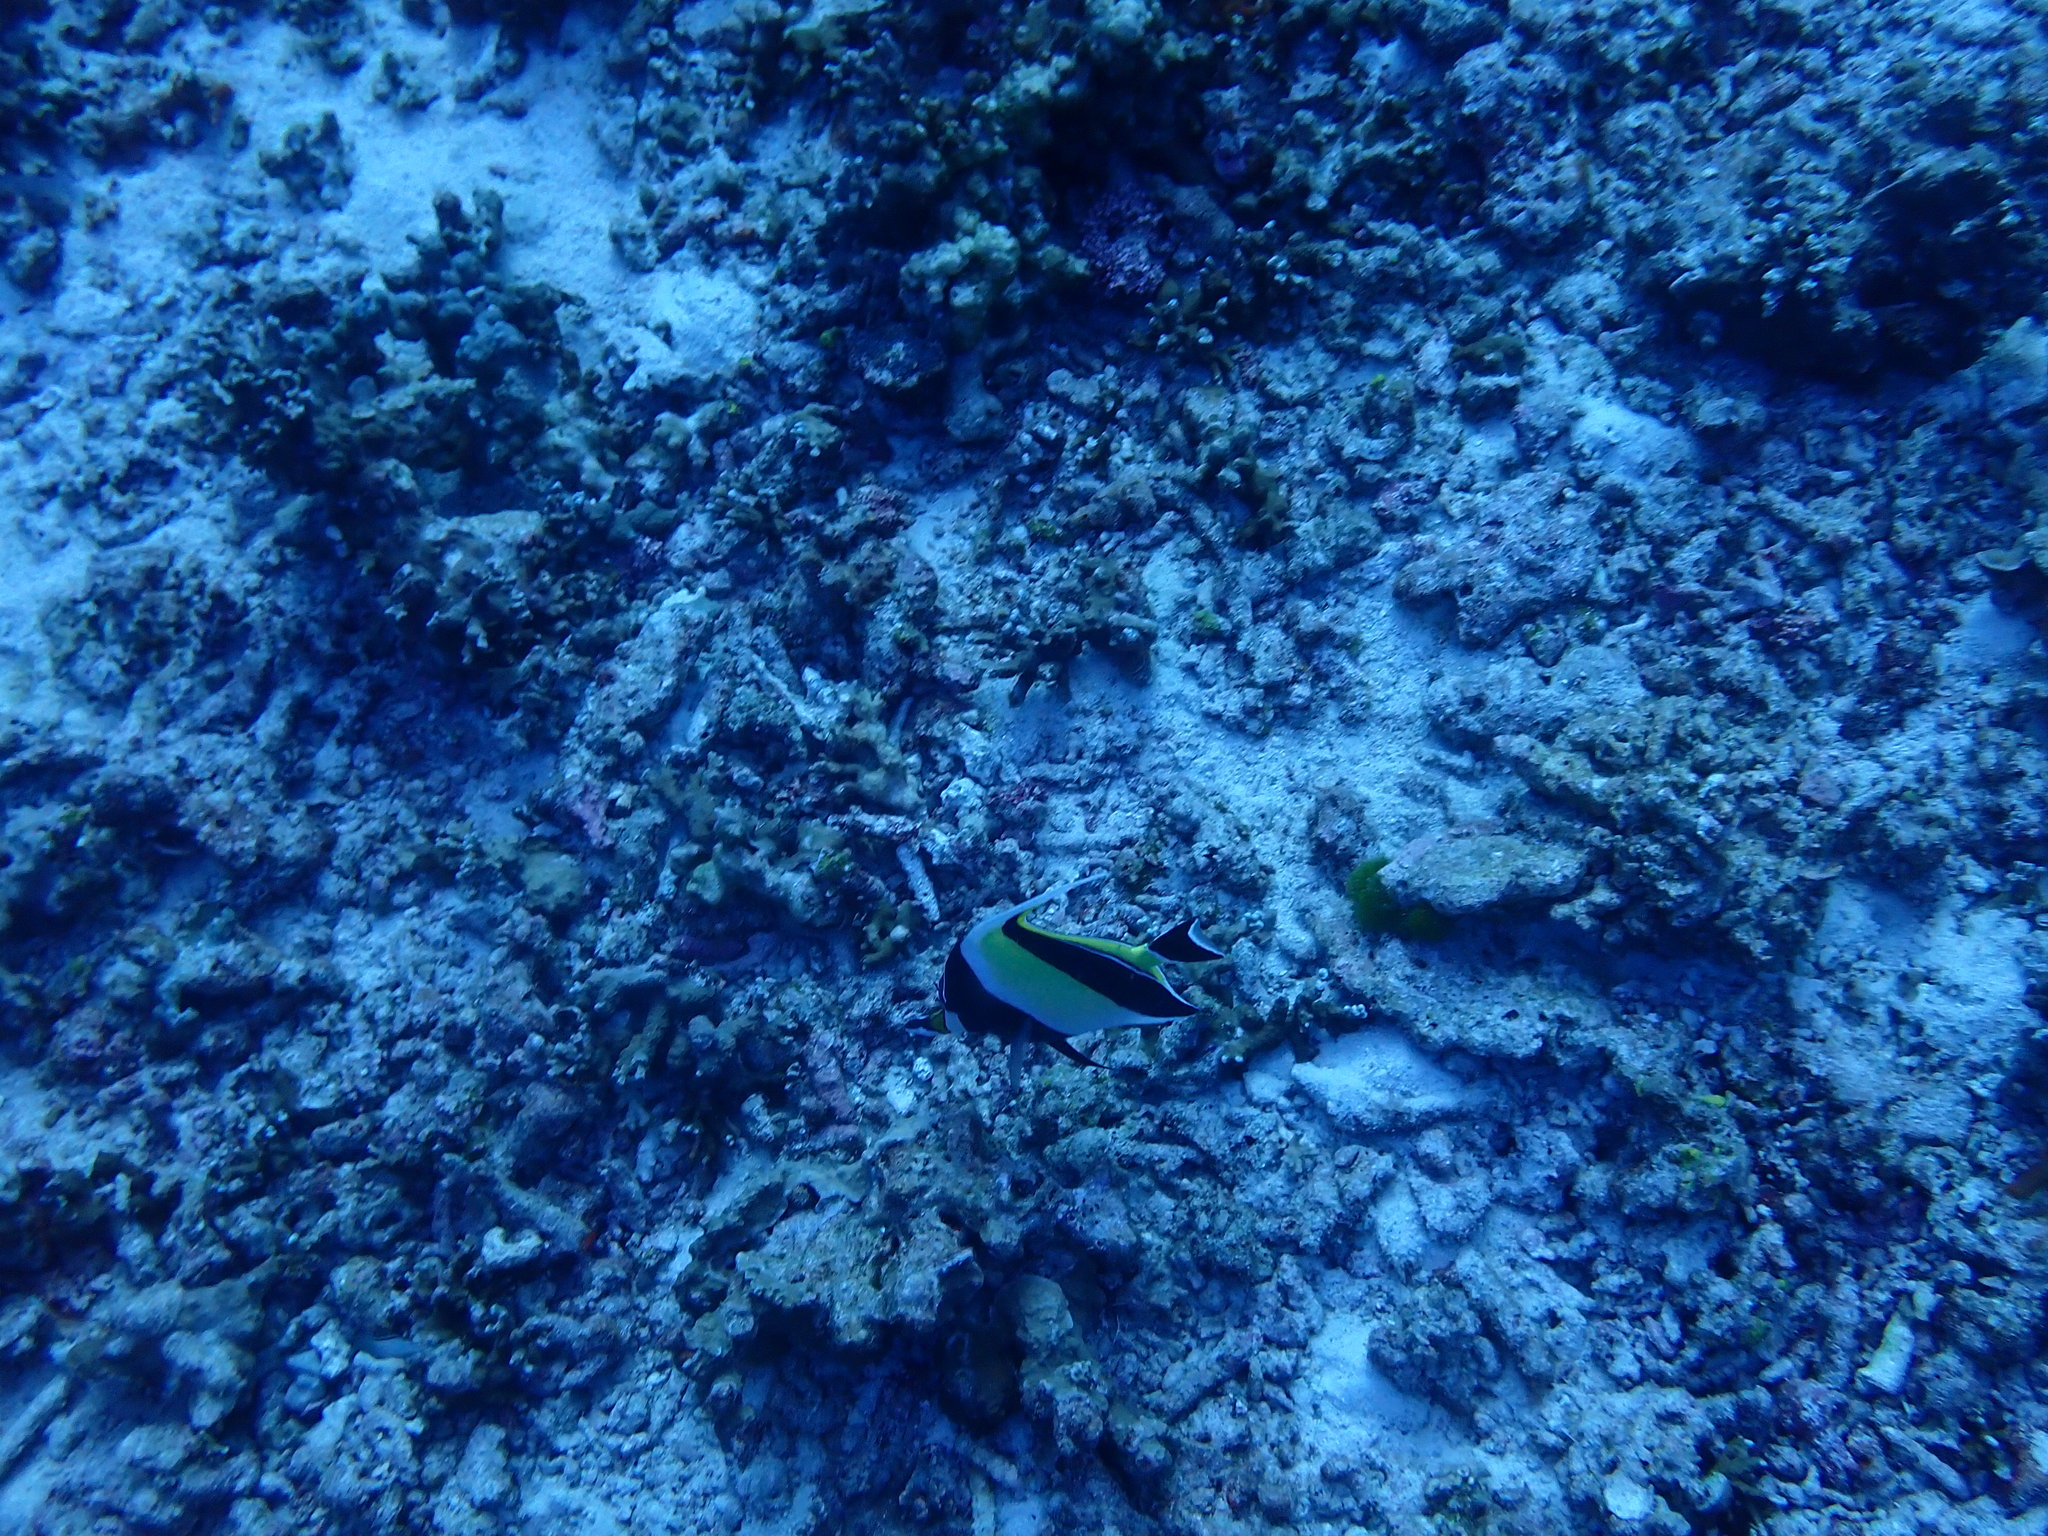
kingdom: Animalia
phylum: Chordata
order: Perciformes
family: Zanclidae
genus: Zanclus
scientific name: Zanclus cornutus
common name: Moorish idol
